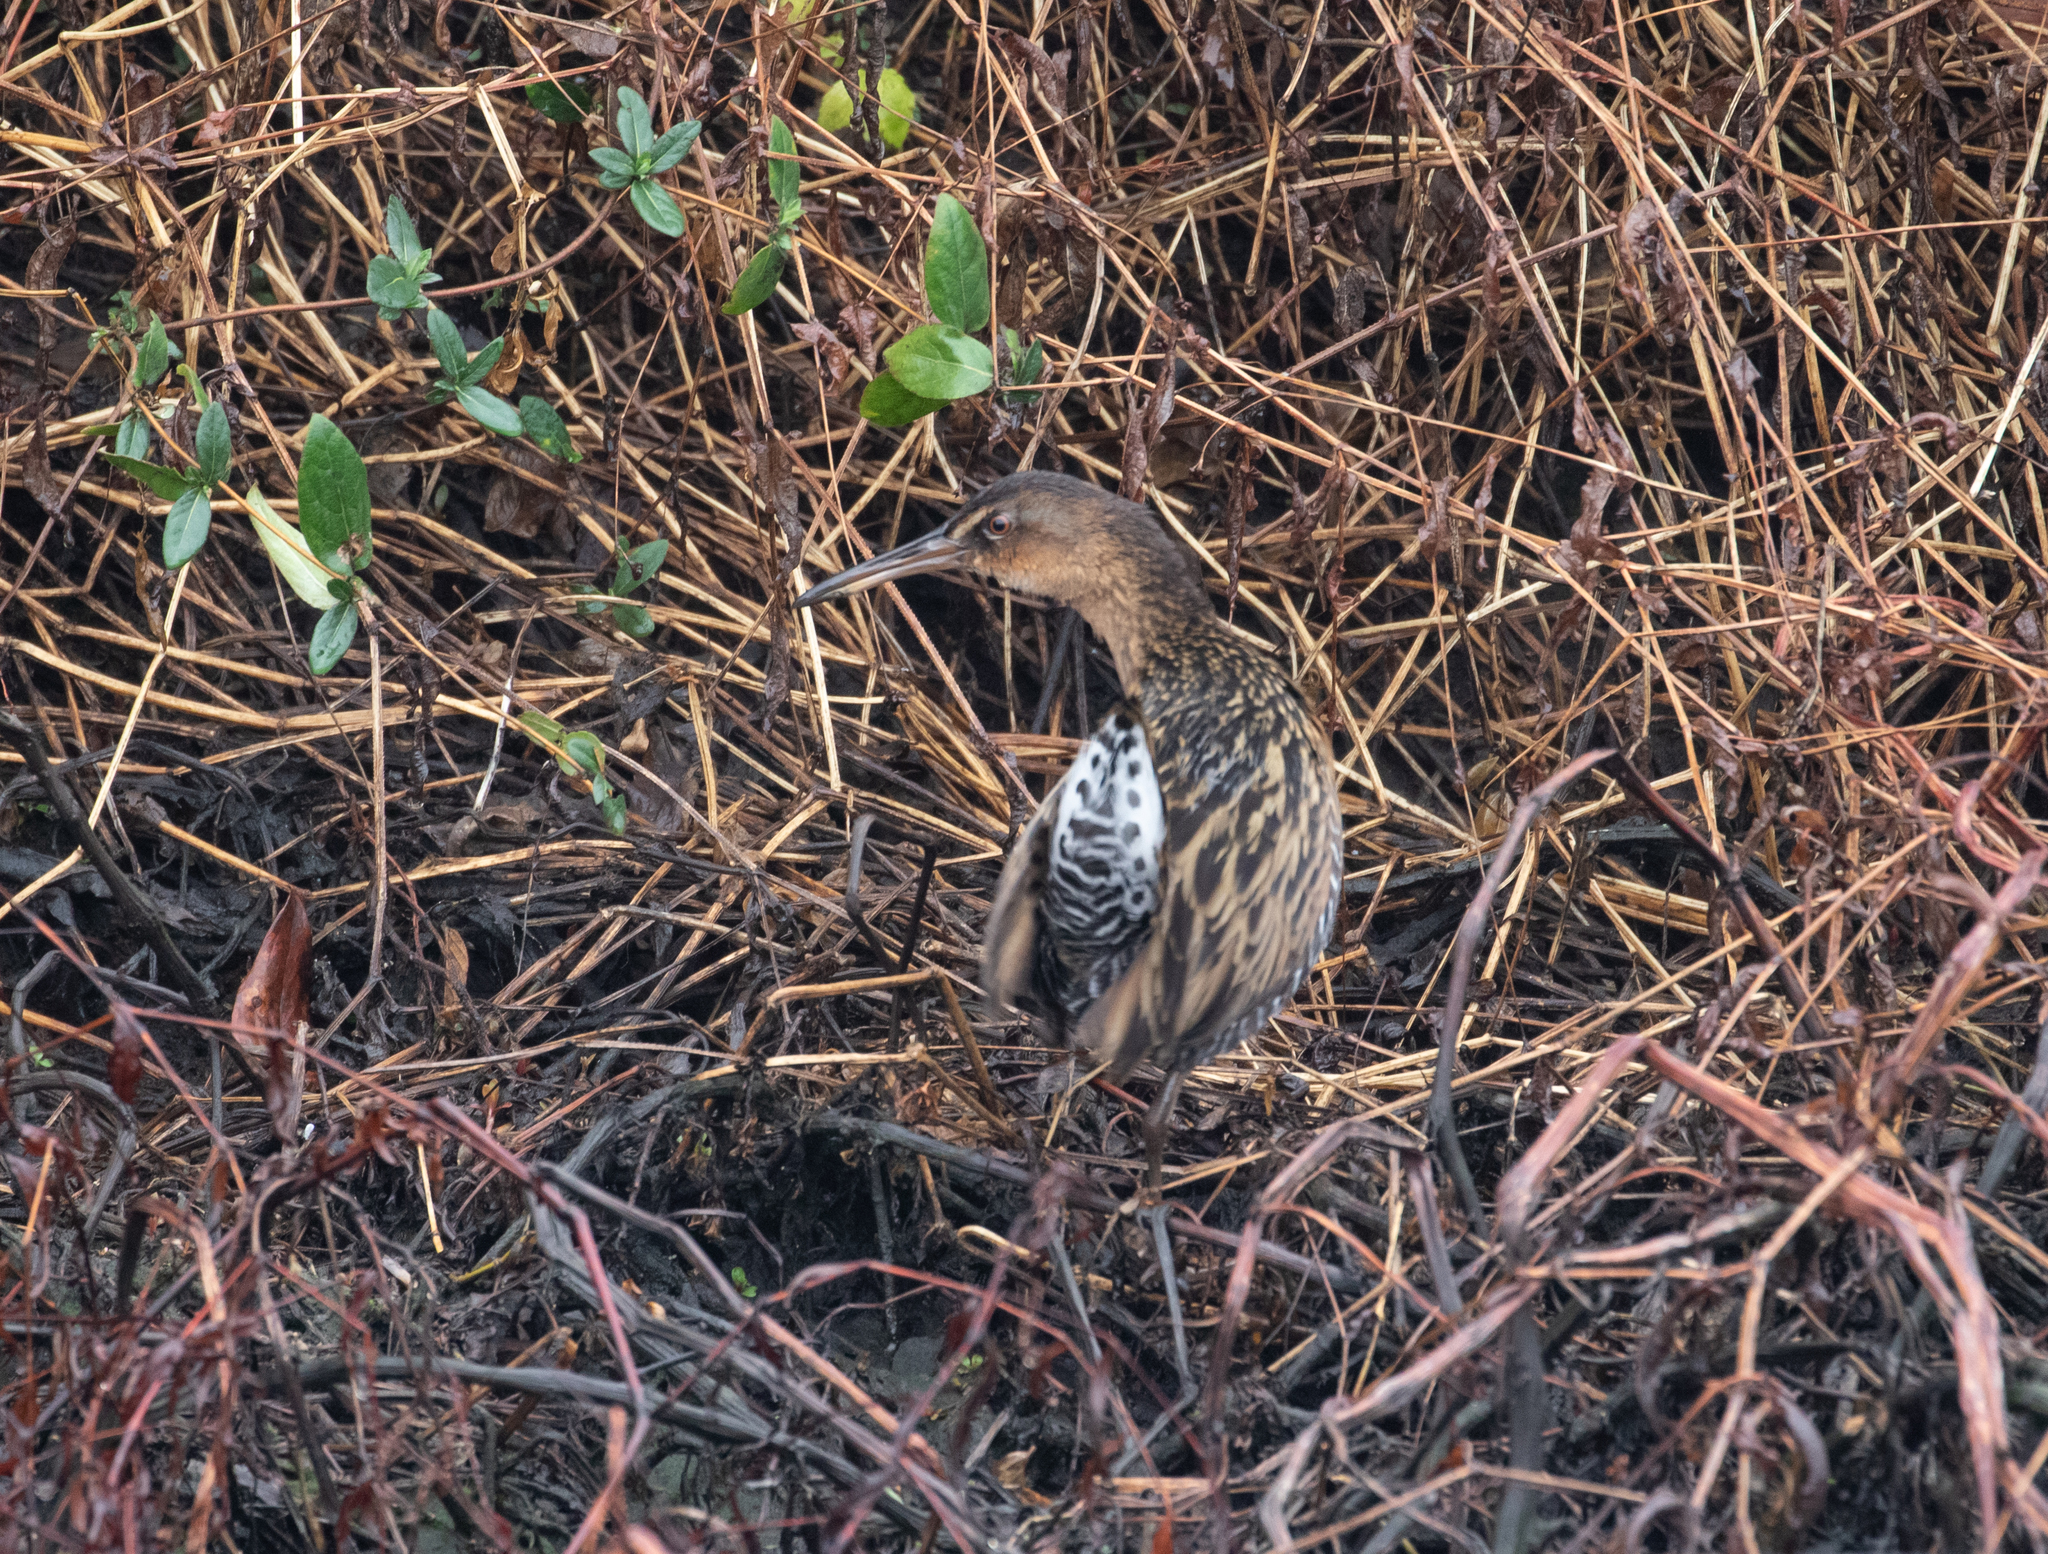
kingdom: Animalia
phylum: Chordata
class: Aves
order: Gruiformes
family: Rallidae
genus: Rallus
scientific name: Rallus elegans
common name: King rail
